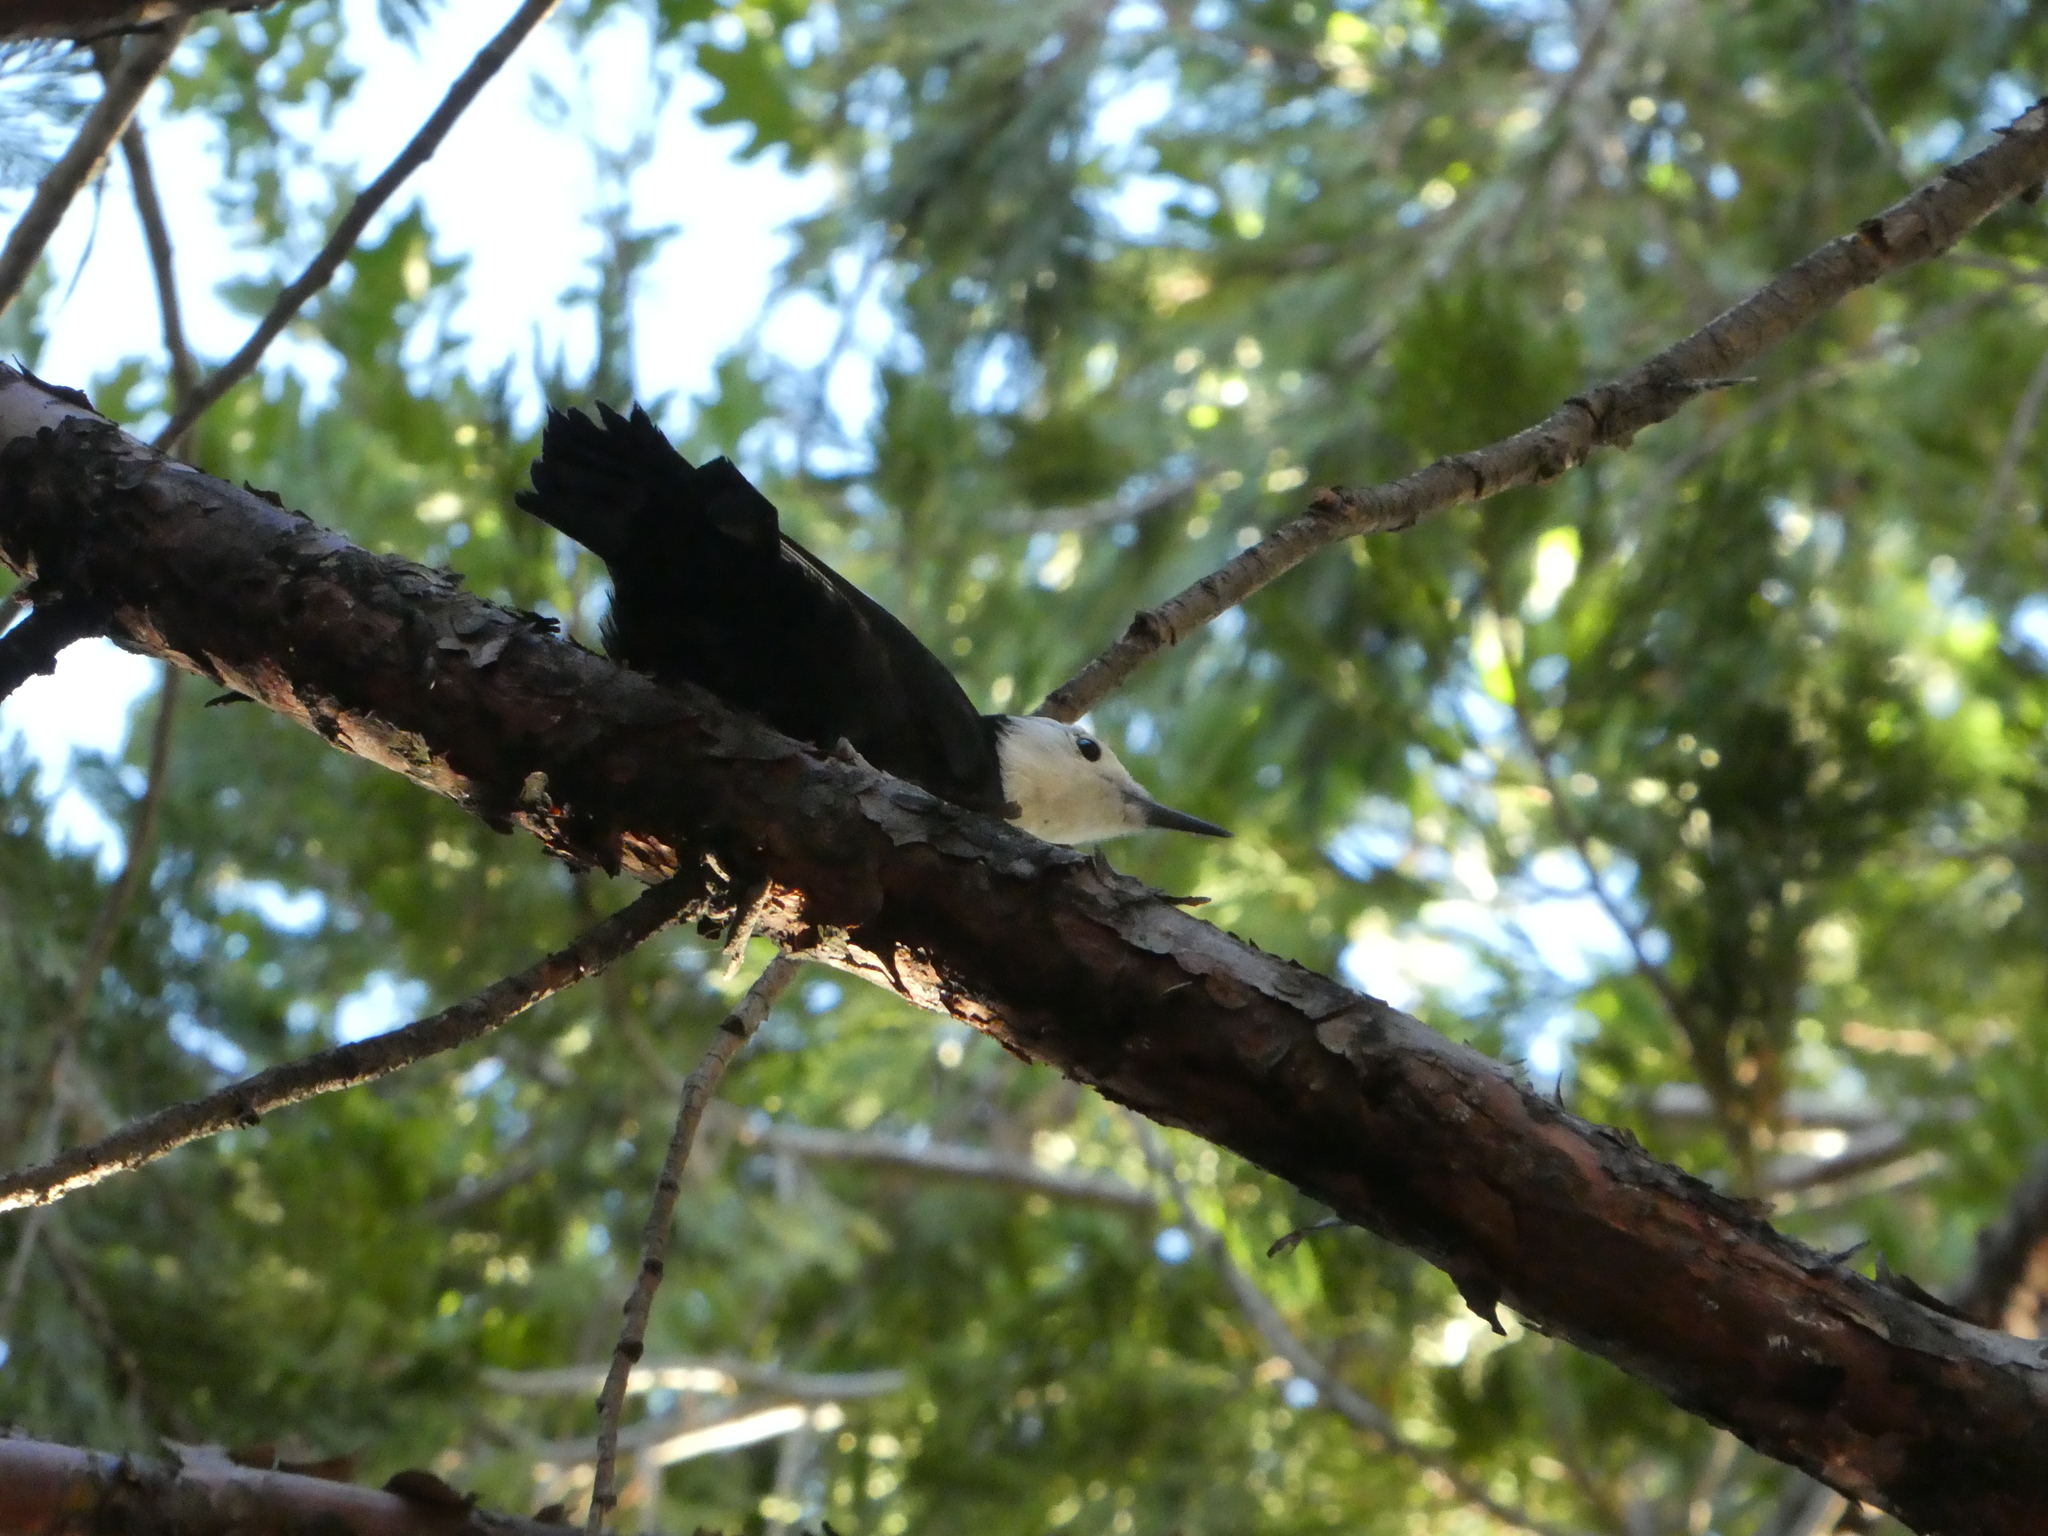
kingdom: Animalia
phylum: Chordata
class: Aves
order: Piciformes
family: Picidae
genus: Leuconotopicus
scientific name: Leuconotopicus albolarvatus
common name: White-headed woodpecker
